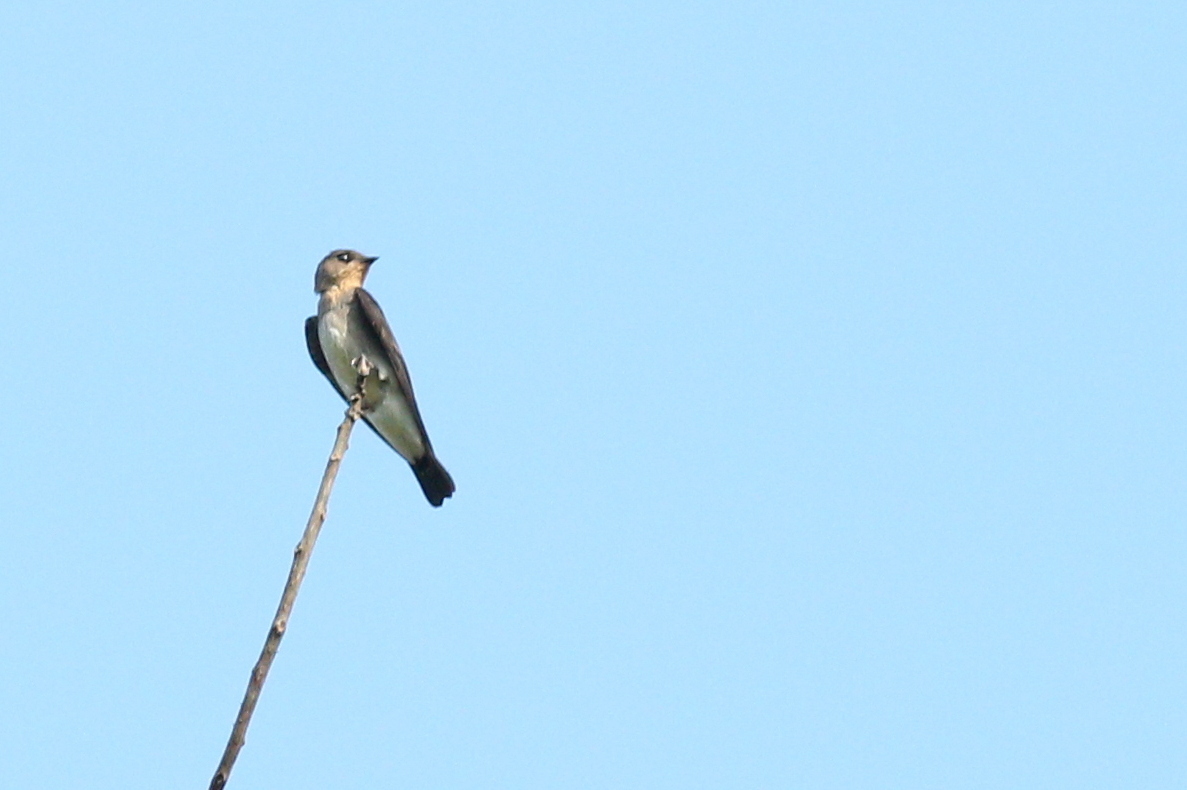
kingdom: Animalia
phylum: Chordata
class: Aves
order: Passeriformes
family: Hirundinidae
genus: Stelgidopteryx
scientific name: Stelgidopteryx ruficollis
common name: Southern rough-winged swallow
